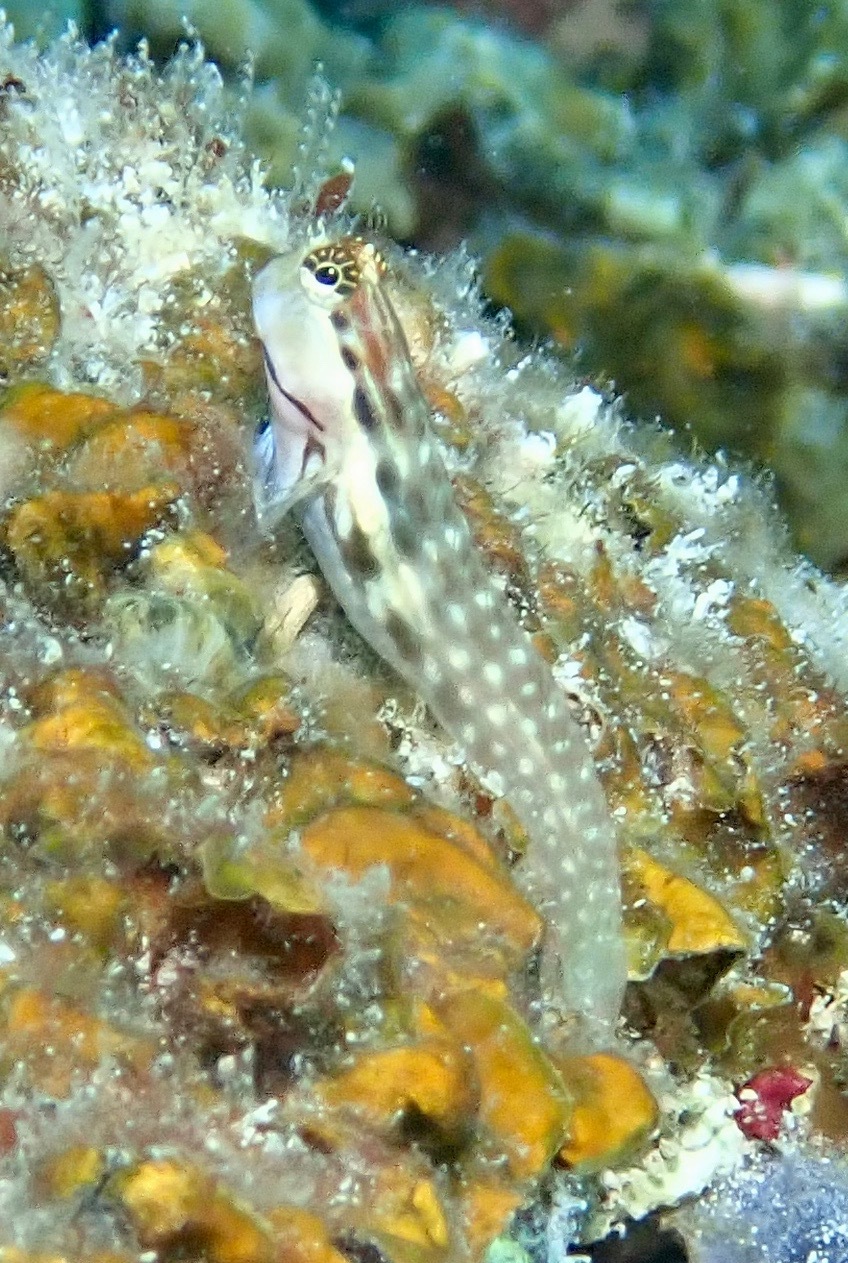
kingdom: Animalia
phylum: Chordata
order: Perciformes
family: Blenniidae
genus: Ecsenius
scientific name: Ecsenius yaeyamaensis
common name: Pale-spotted combtooth-blenny
